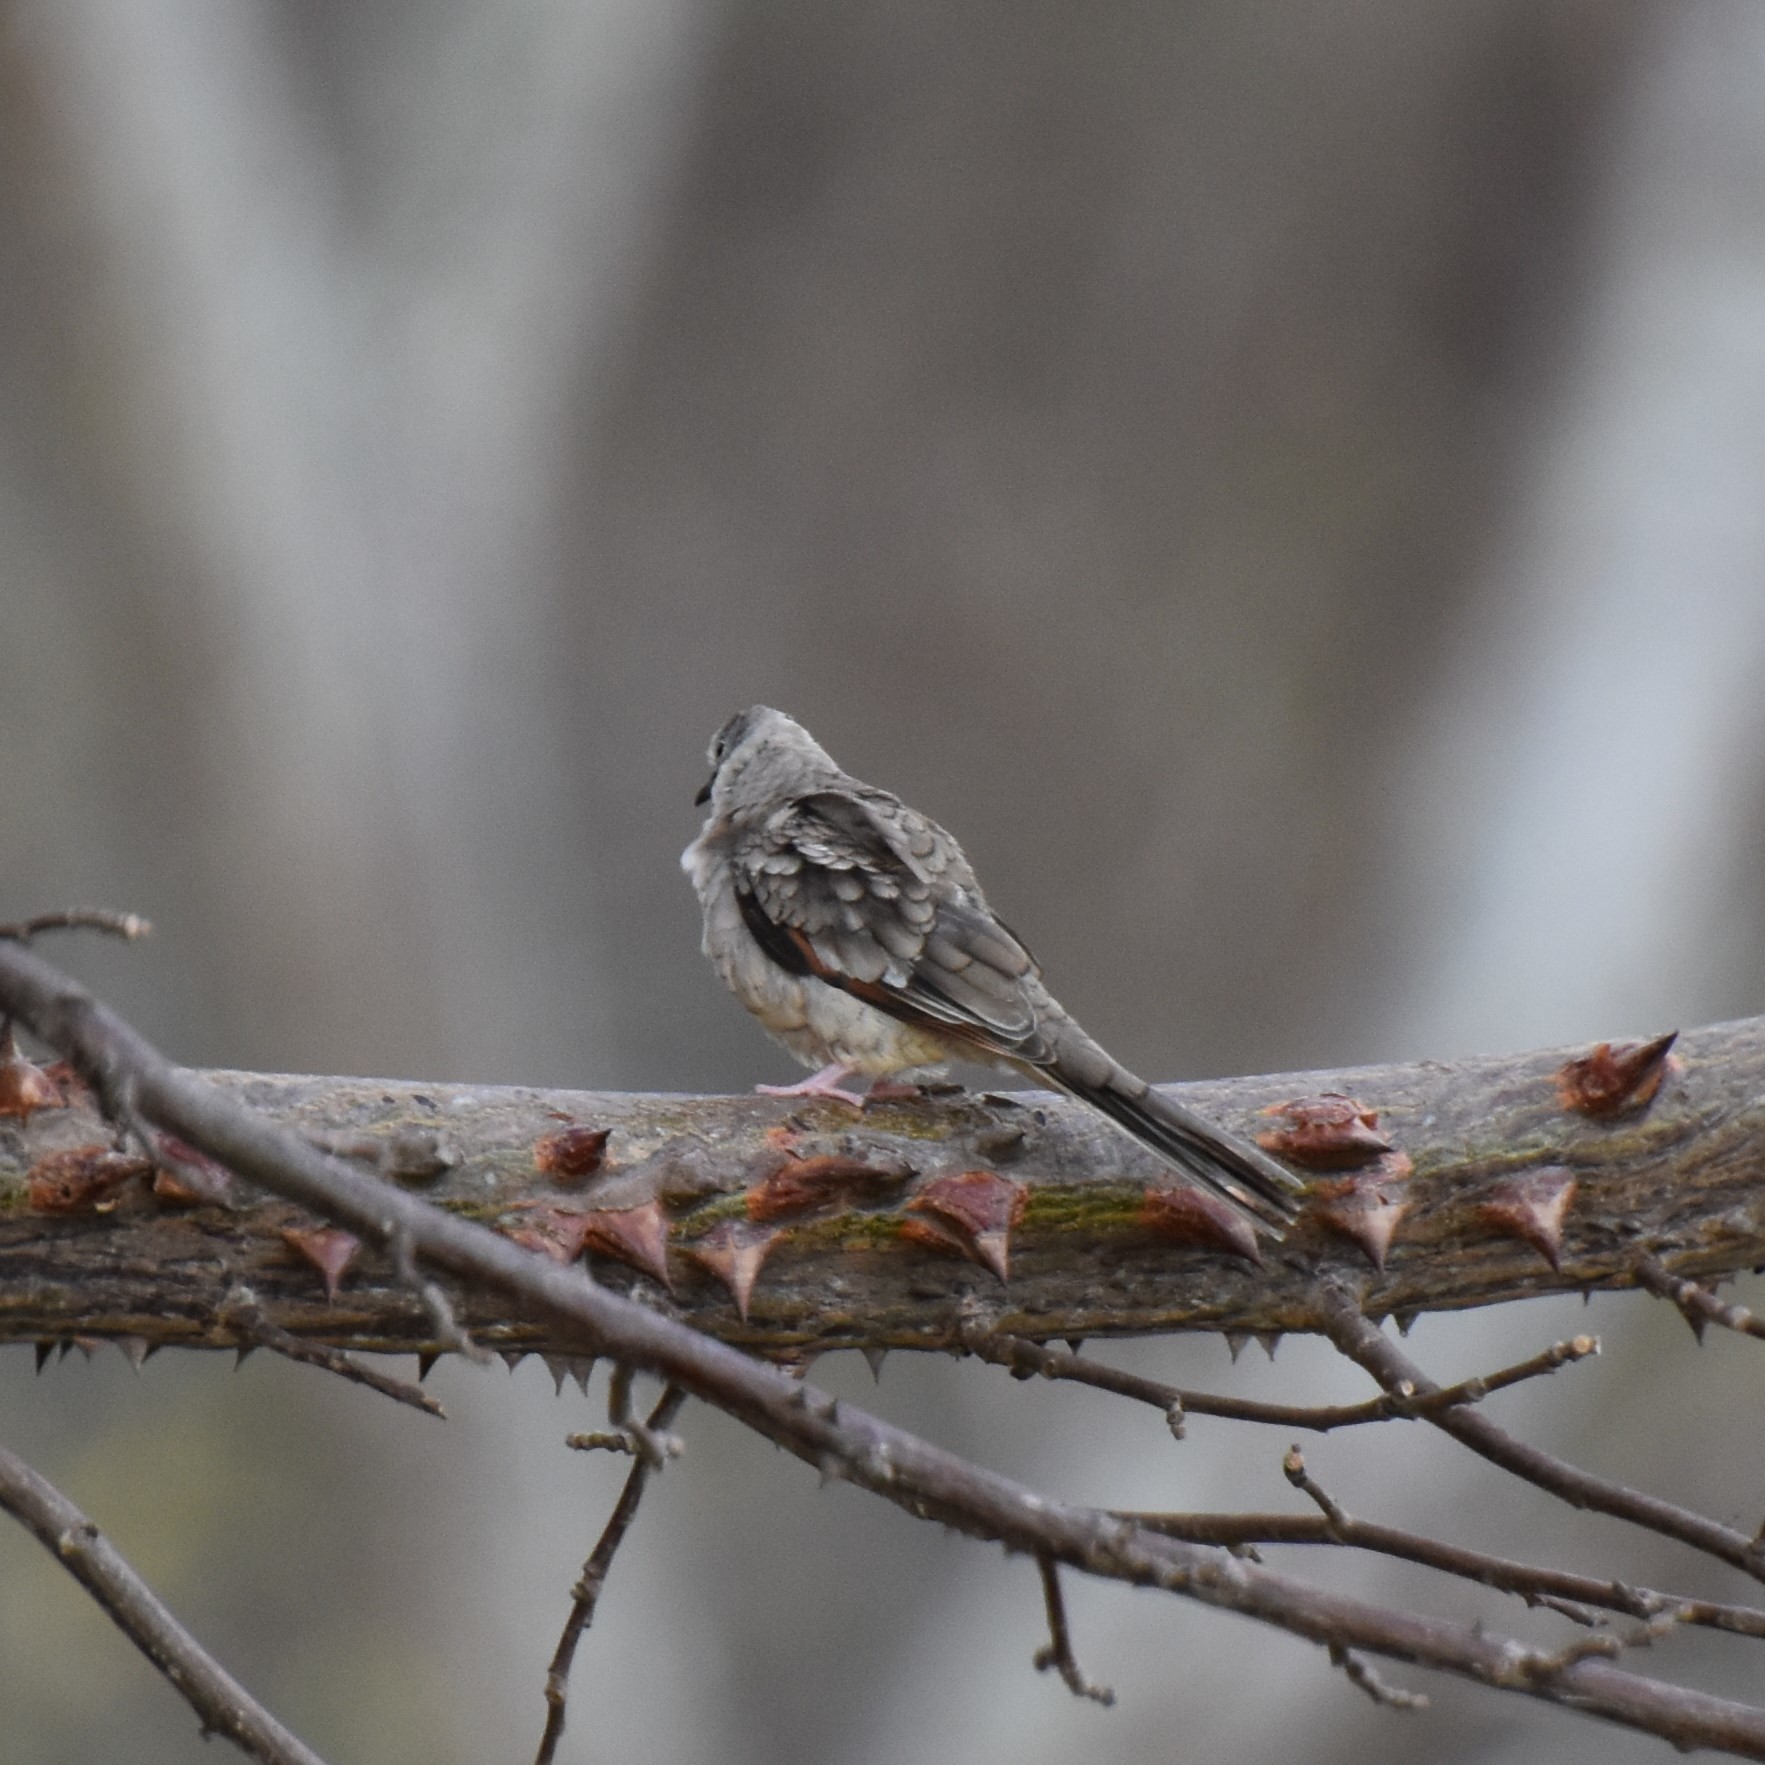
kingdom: Animalia
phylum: Chordata
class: Aves
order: Columbiformes
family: Columbidae
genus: Columbina
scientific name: Columbina inca
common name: Inca dove
